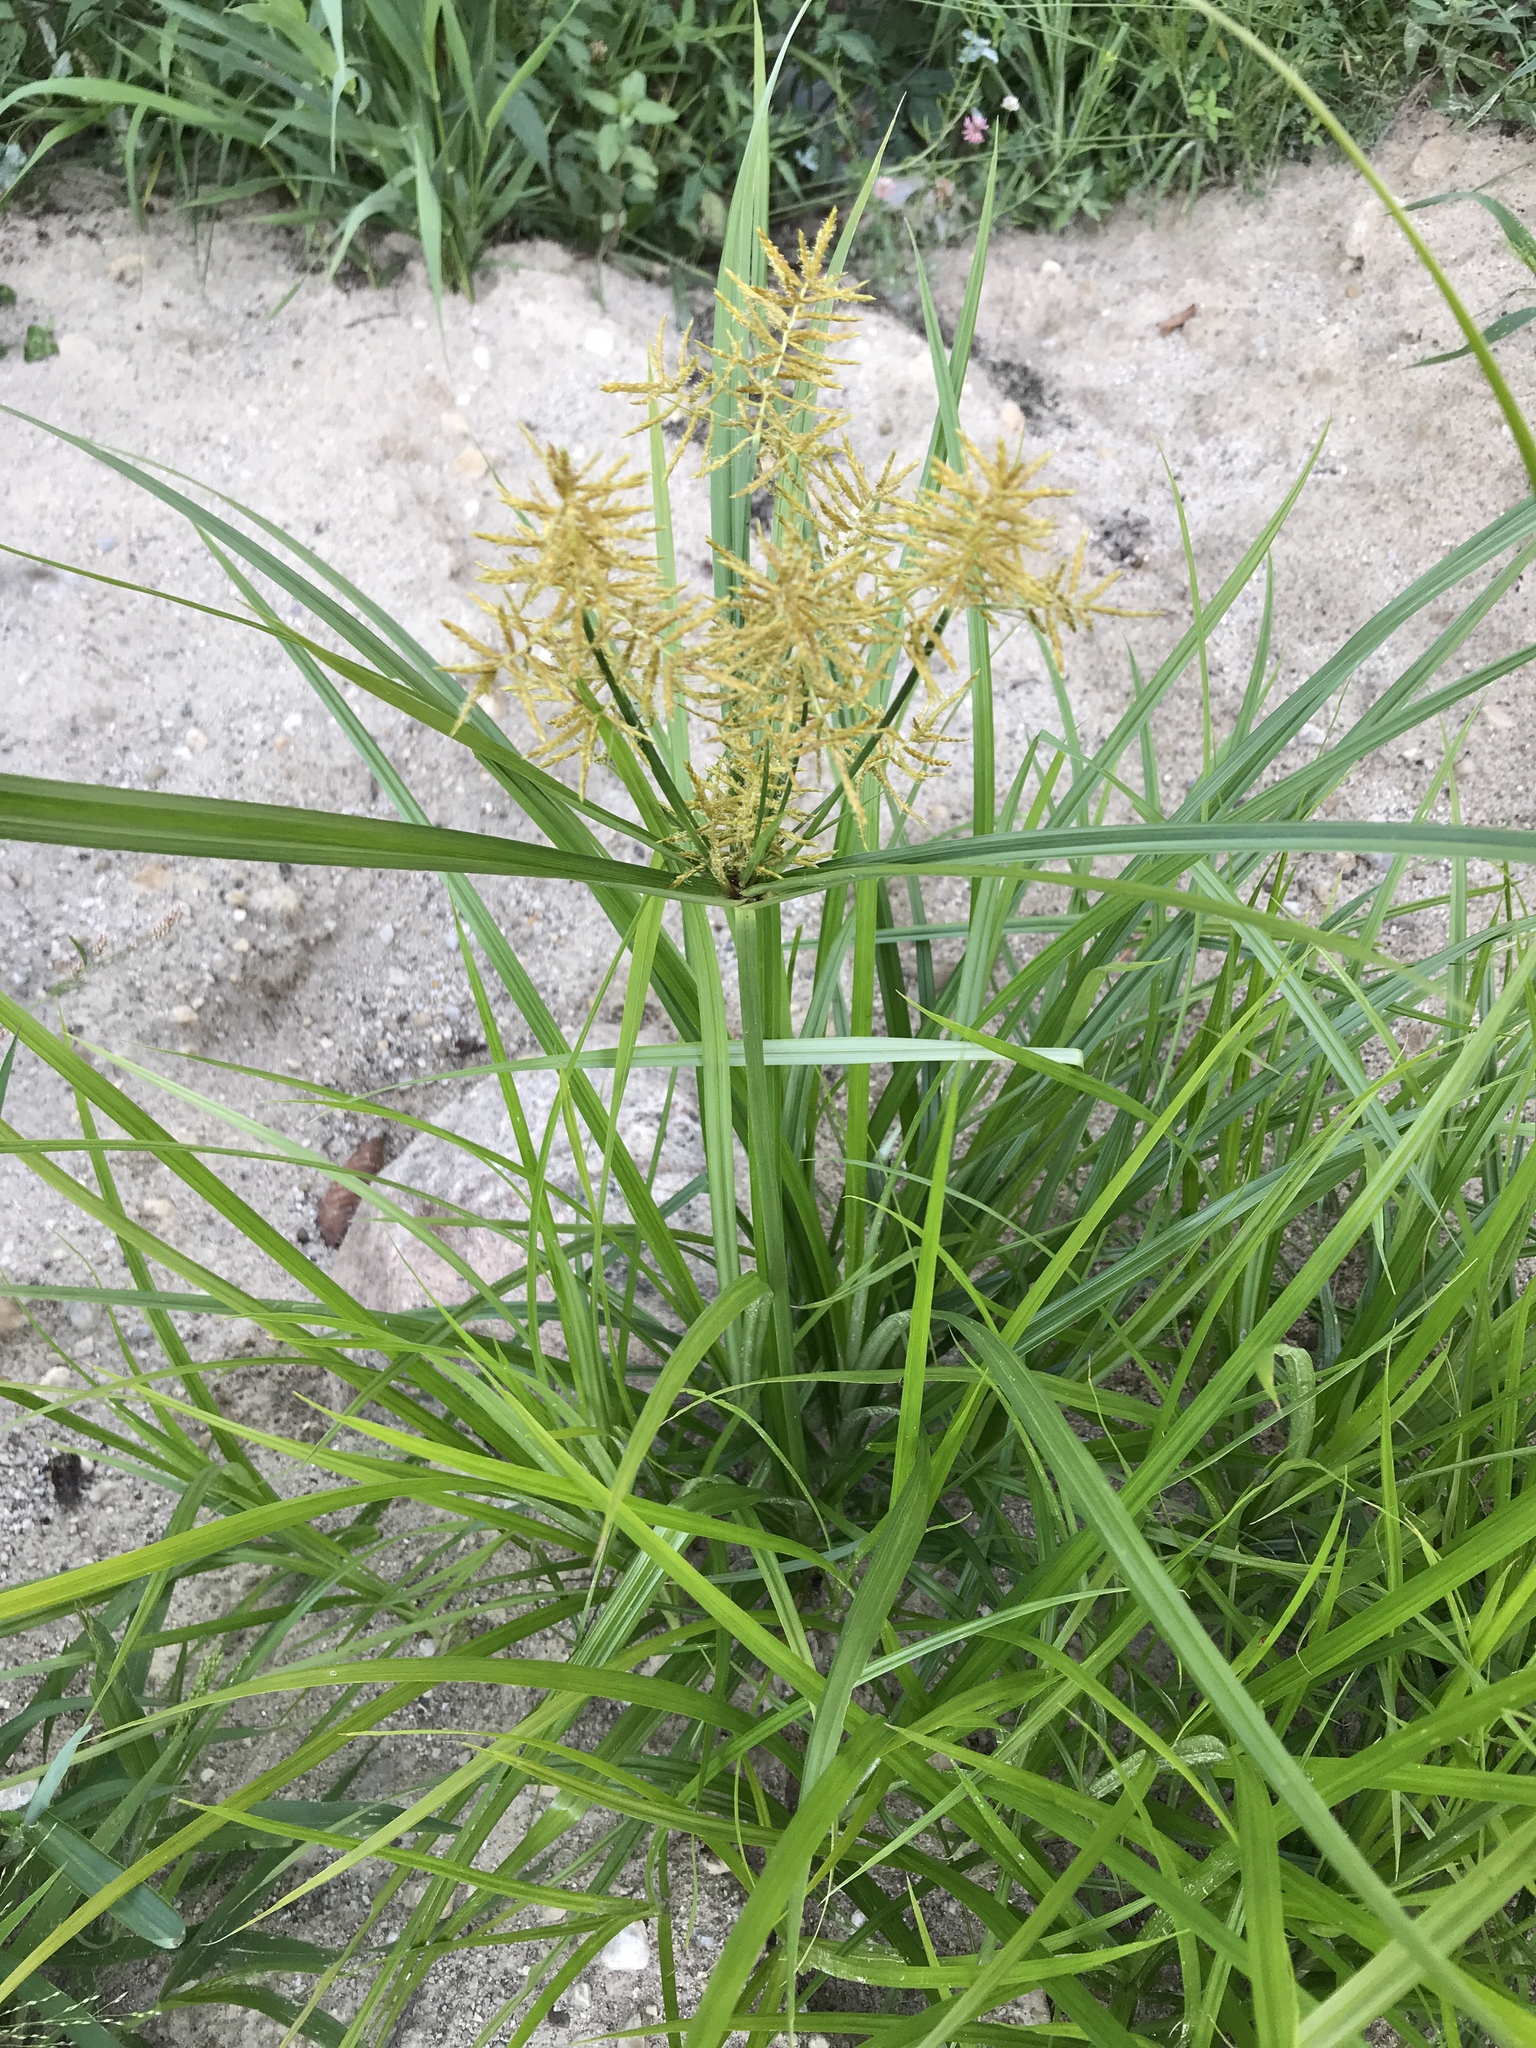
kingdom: Plantae
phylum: Tracheophyta
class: Liliopsida
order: Poales
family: Cyperaceae
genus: Cyperus
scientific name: Cyperus esculentus
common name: Yellow nutsedge
